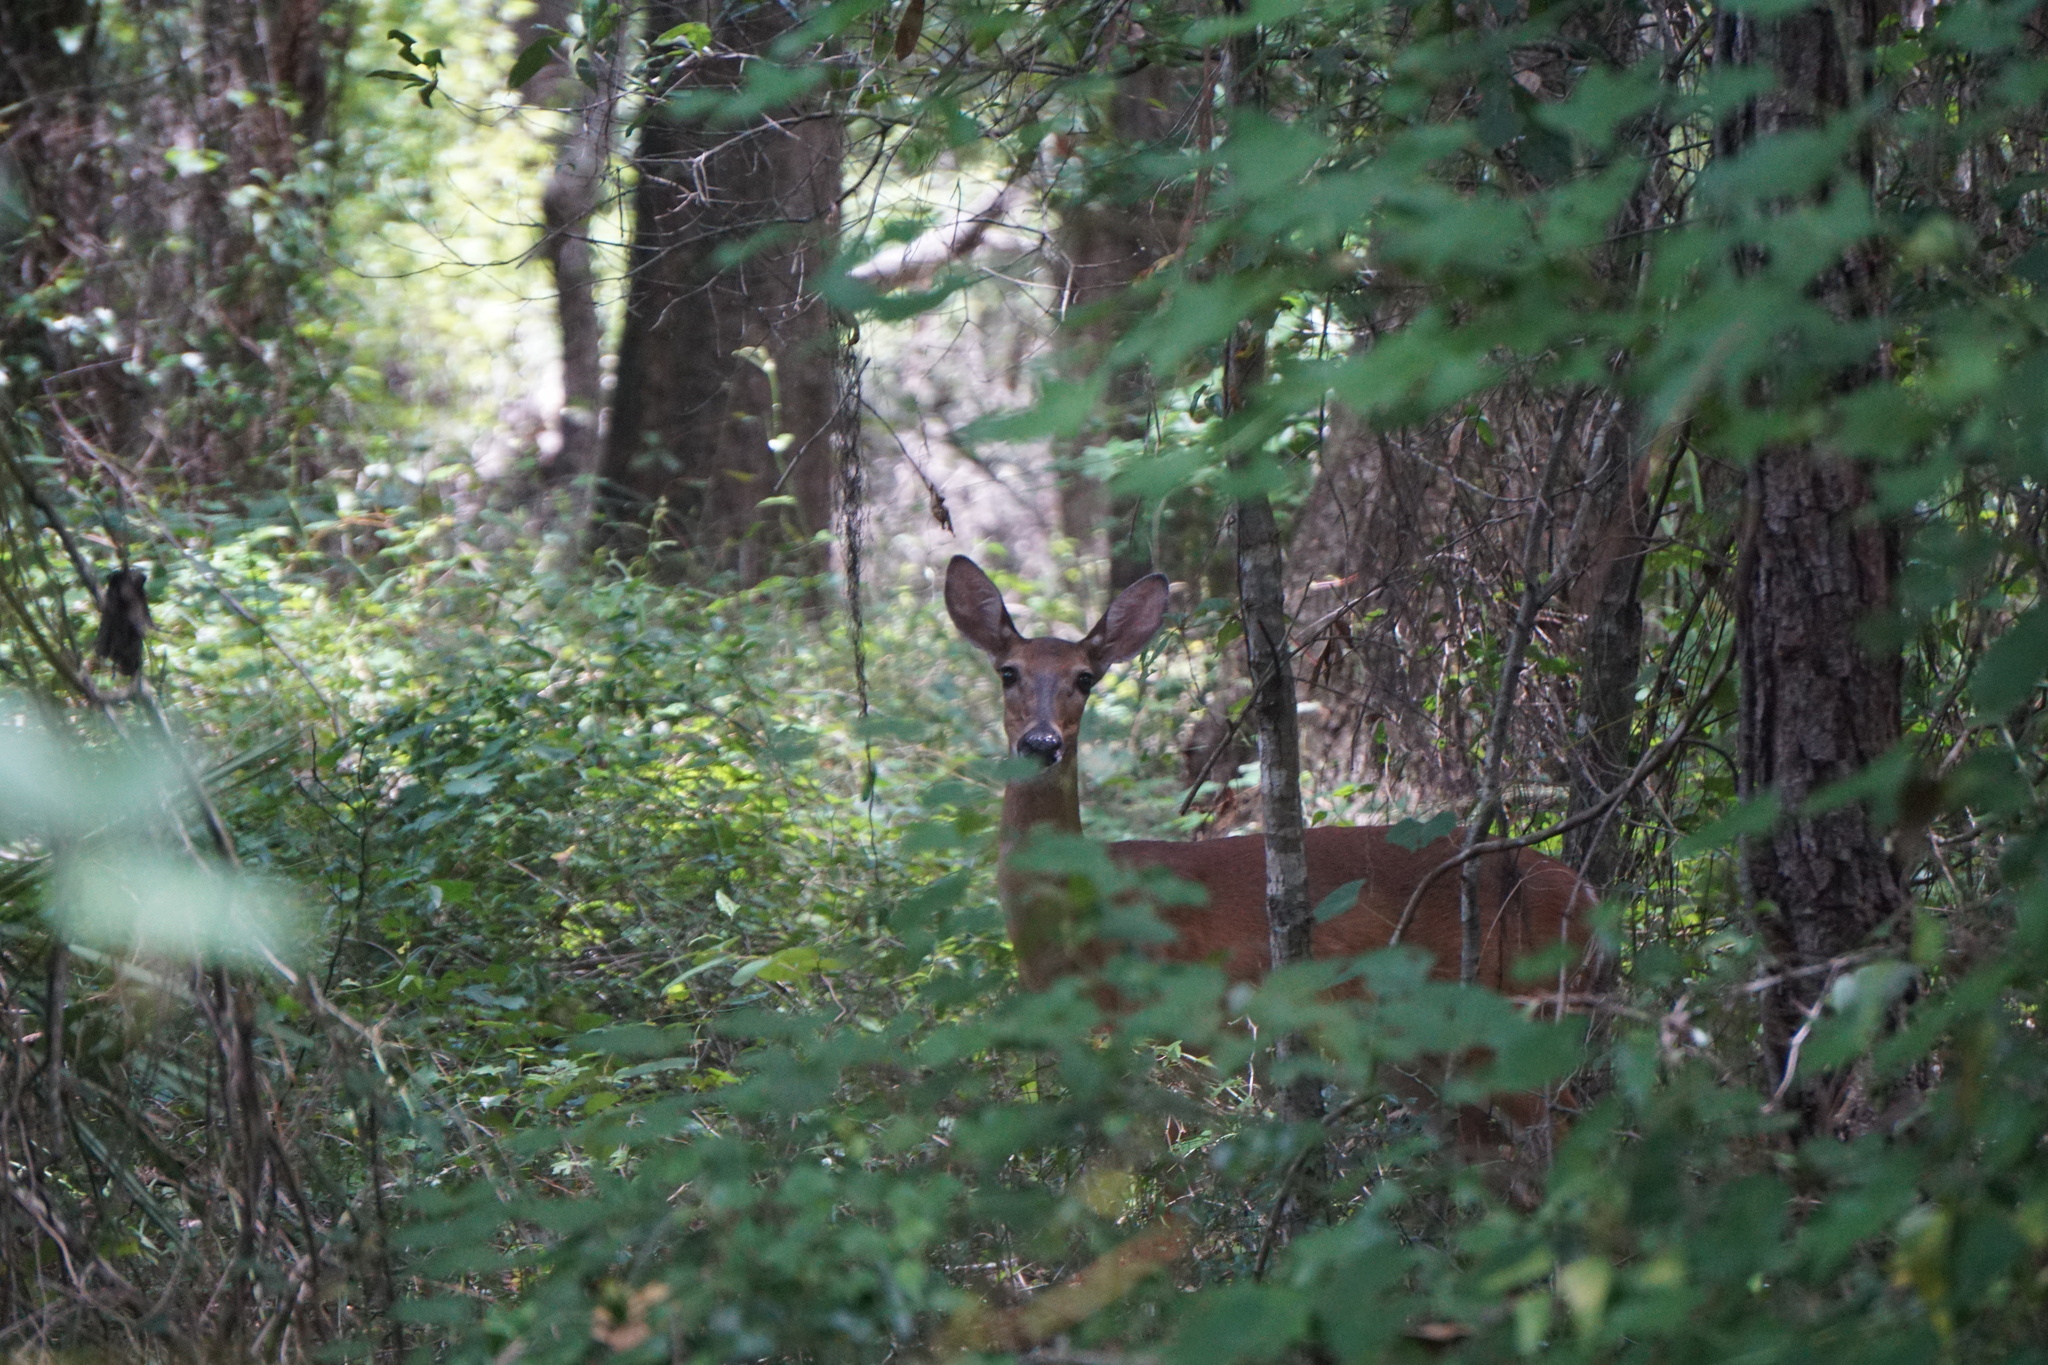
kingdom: Animalia
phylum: Chordata
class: Mammalia
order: Artiodactyla
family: Cervidae
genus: Odocoileus
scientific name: Odocoileus virginianus
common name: White-tailed deer
